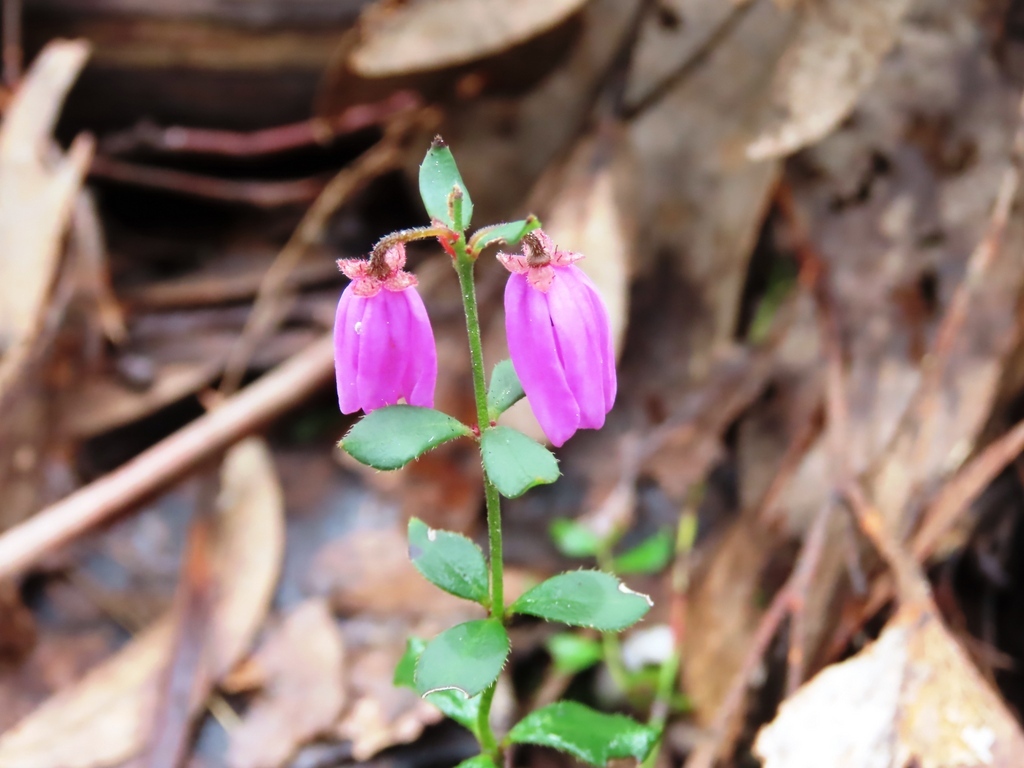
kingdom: Plantae
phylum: Tracheophyta
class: Magnoliopsida
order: Oxalidales
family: Elaeocarpaceae
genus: Tetratheca
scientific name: Tetratheca ciliata
